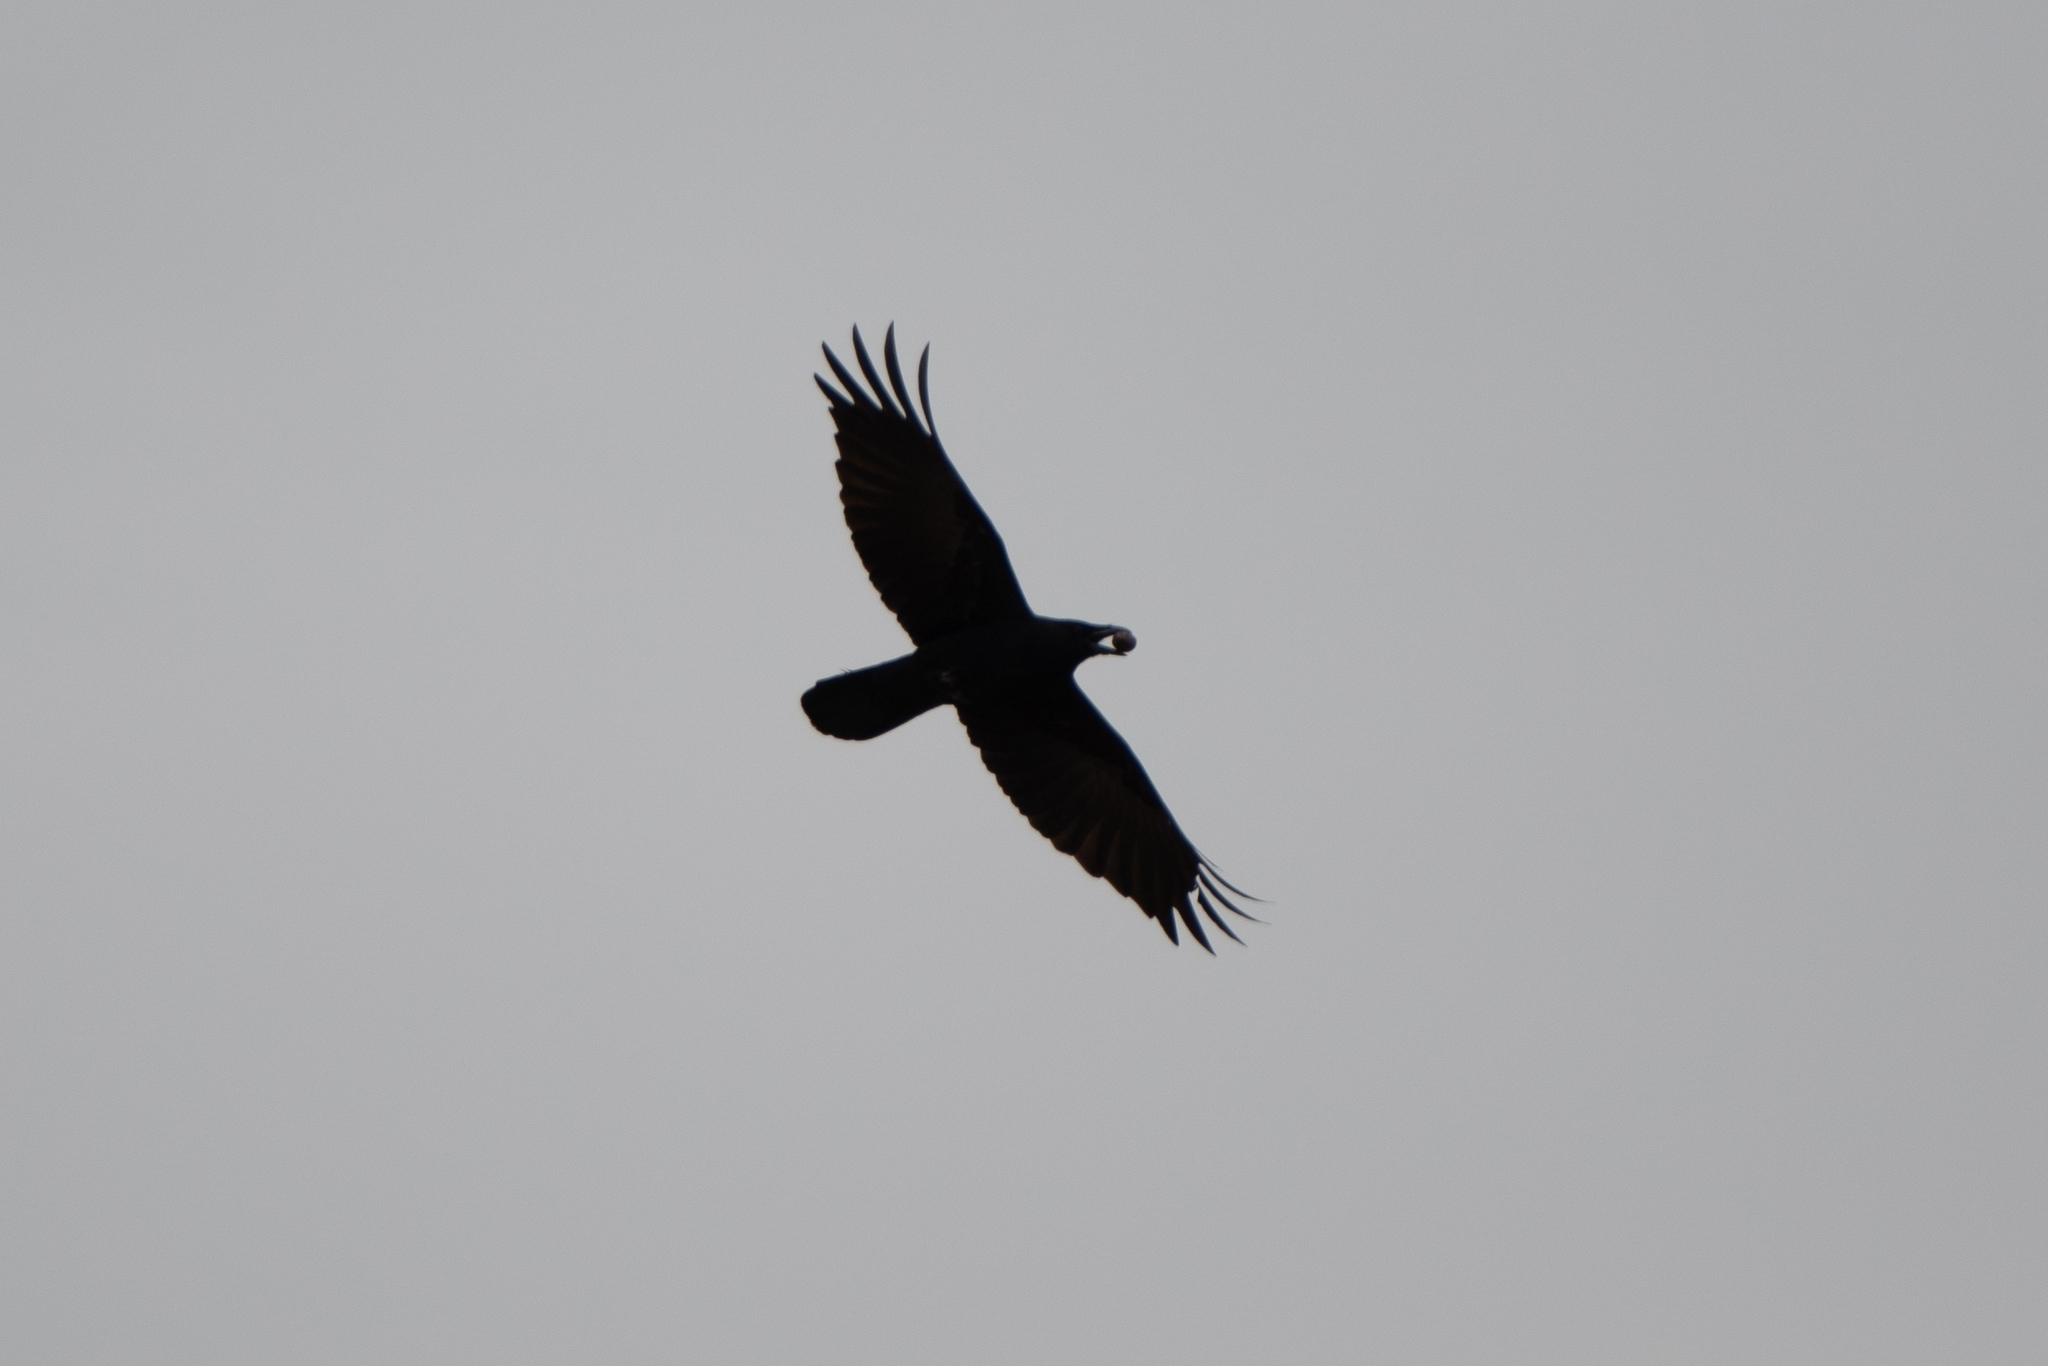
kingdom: Animalia
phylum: Chordata
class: Aves
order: Passeriformes
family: Corvidae
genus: Corvus
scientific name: Corvus corax
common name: Common raven
